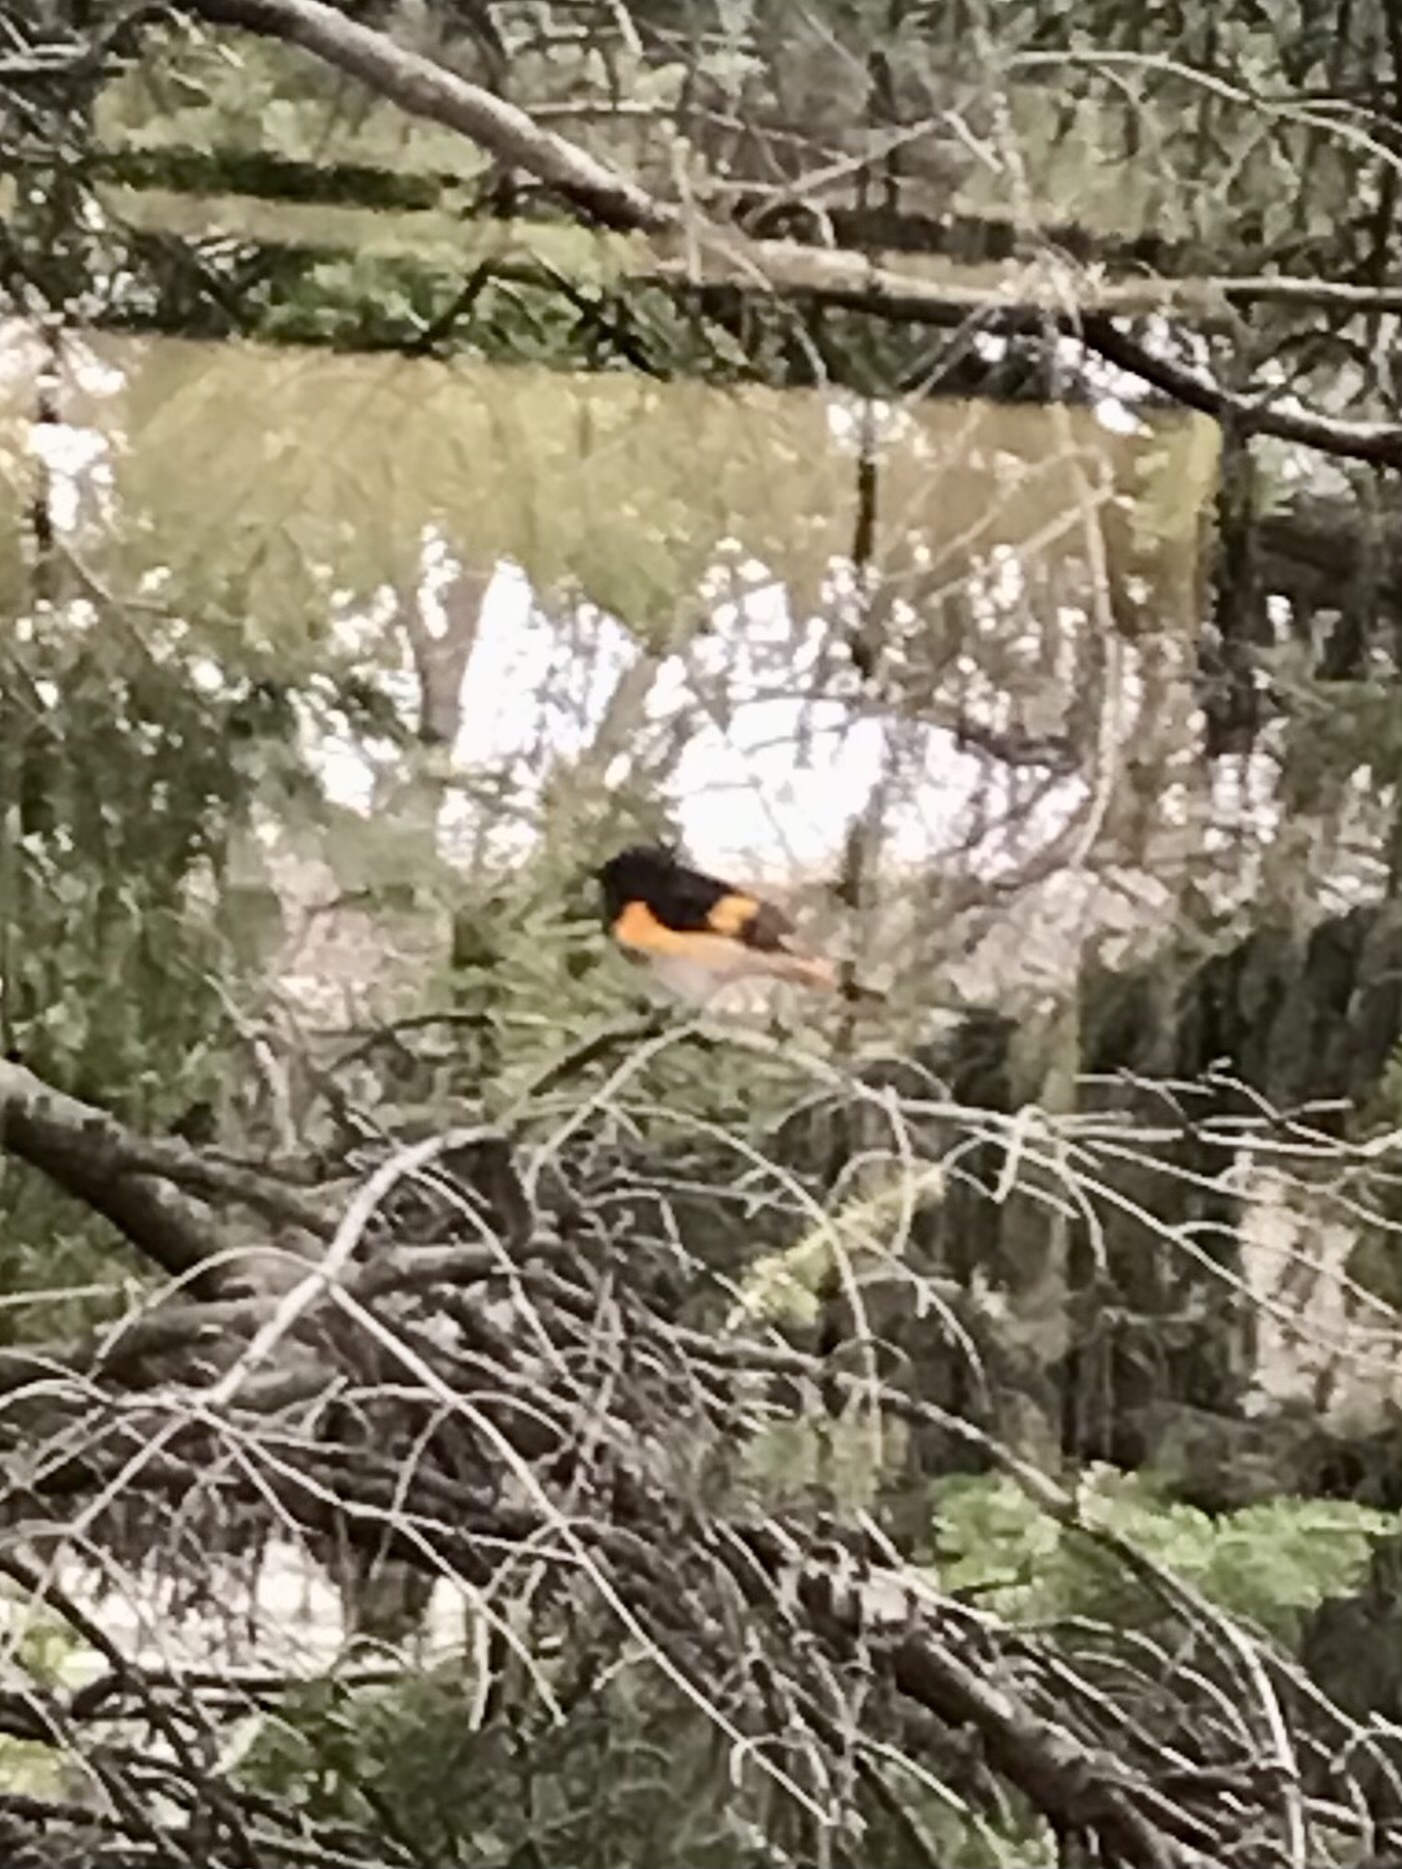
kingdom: Animalia
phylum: Chordata
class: Aves
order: Passeriformes
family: Parulidae
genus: Setophaga
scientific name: Setophaga ruticilla
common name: American redstart
